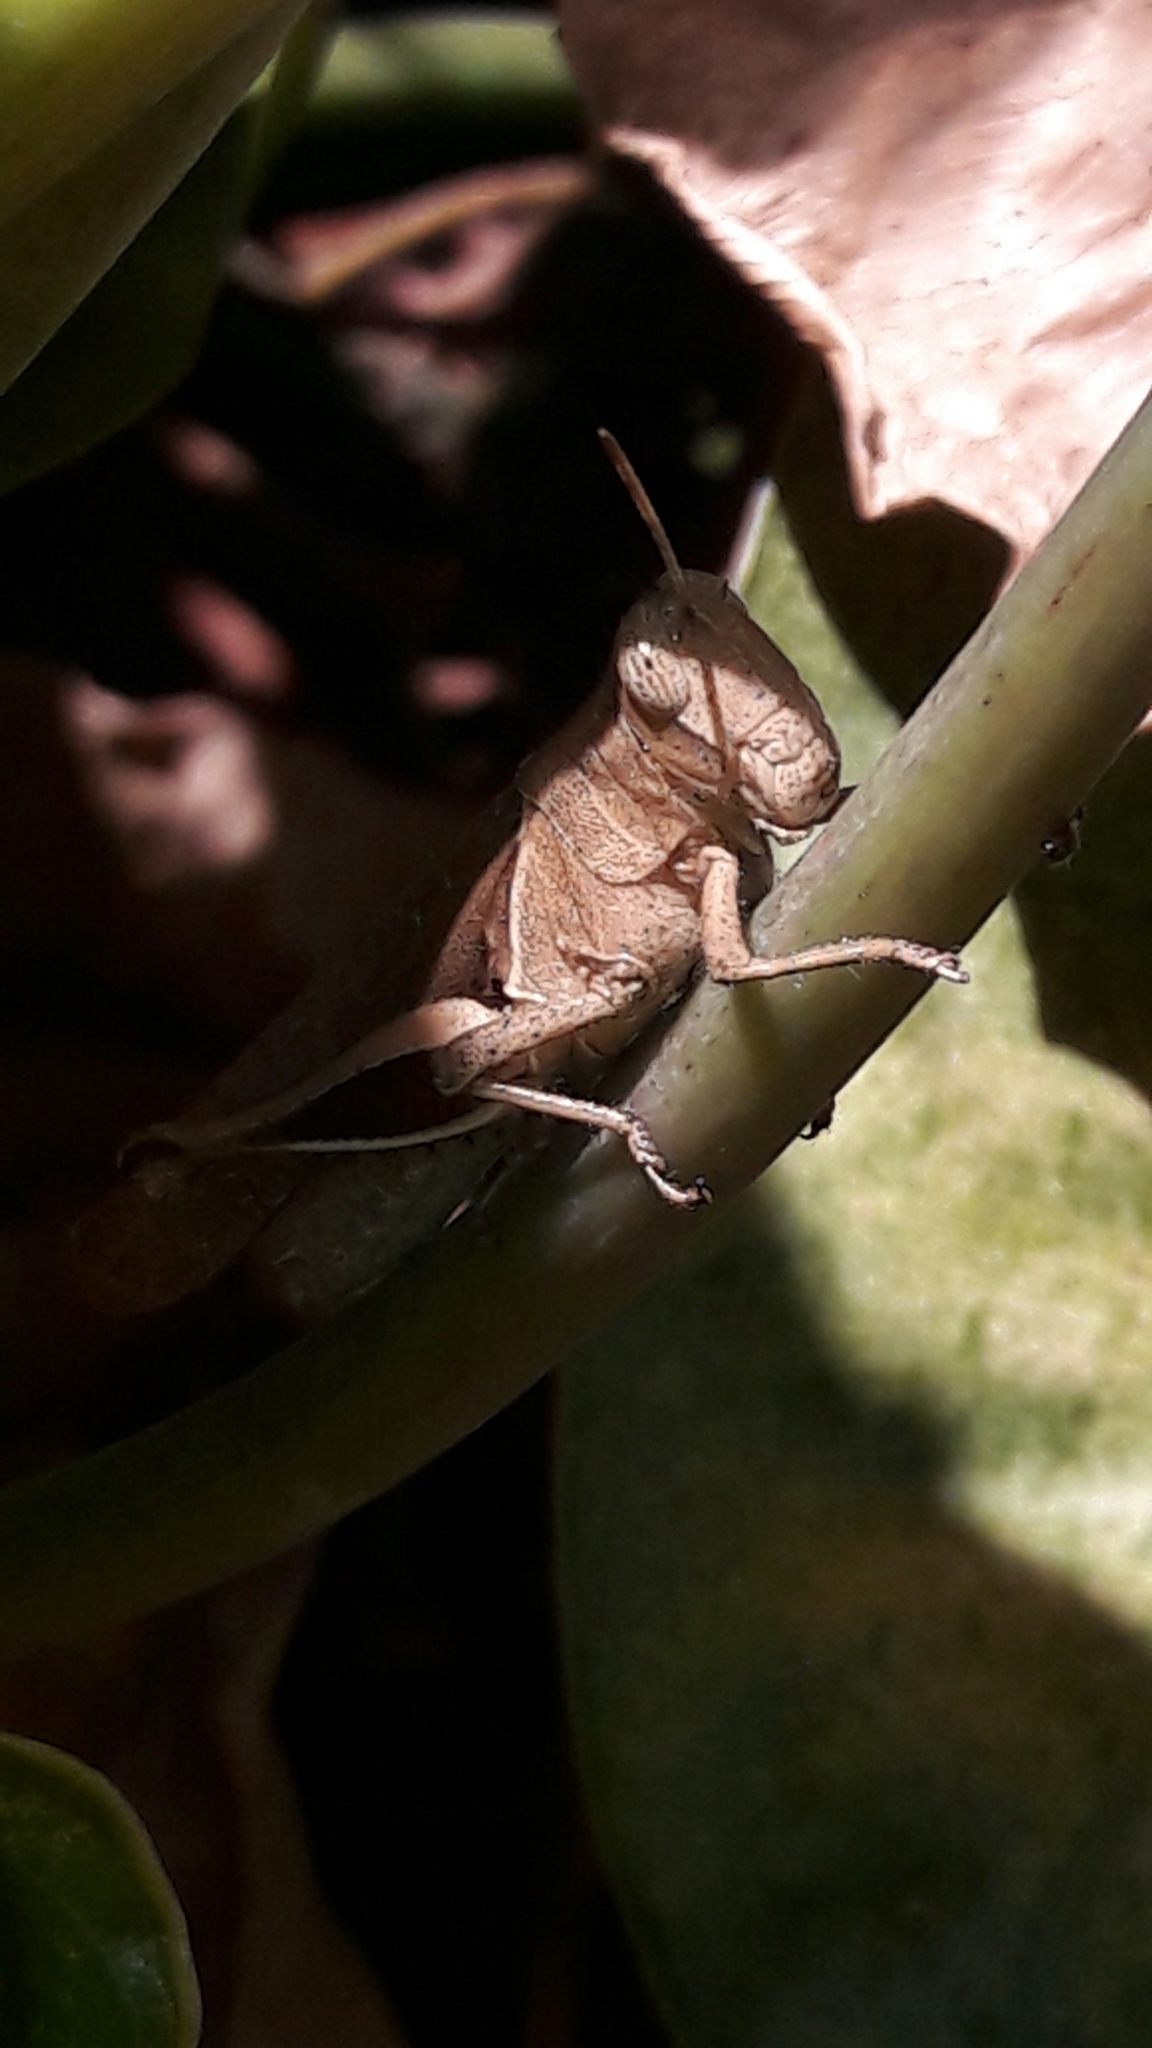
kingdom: Animalia
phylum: Arthropoda
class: Insecta
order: Orthoptera
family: Acrididae
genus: Abracris
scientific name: Abracris flavolineata
